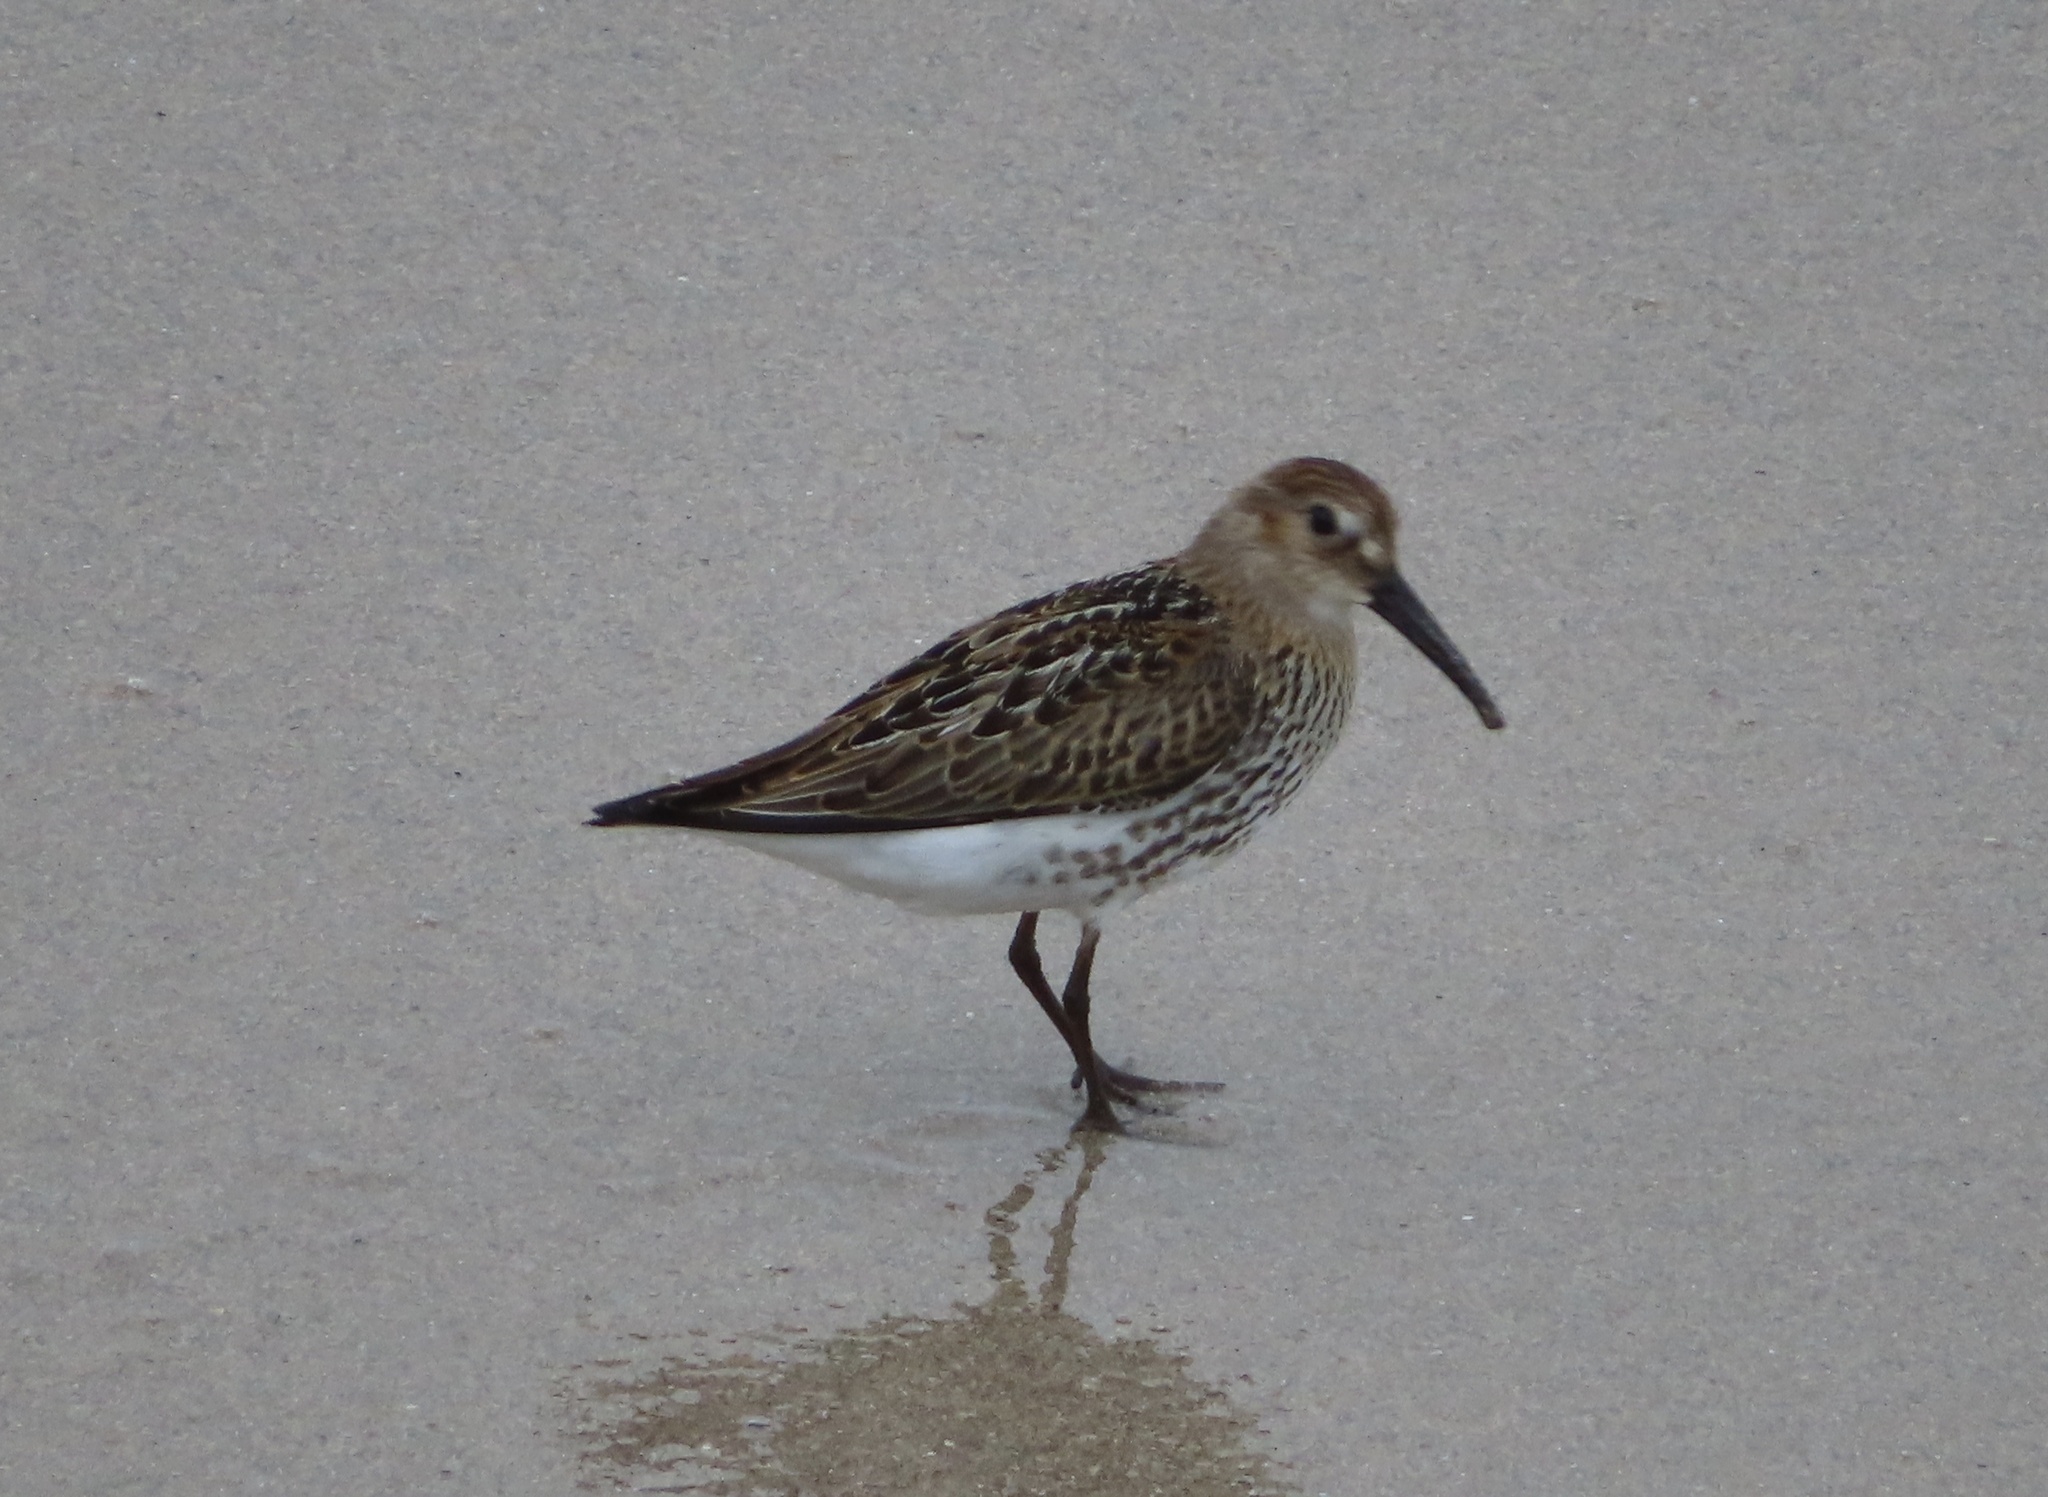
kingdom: Animalia
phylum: Chordata
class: Aves
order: Charadriiformes
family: Scolopacidae
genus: Calidris
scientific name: Calidris alpina
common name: Dunlin
